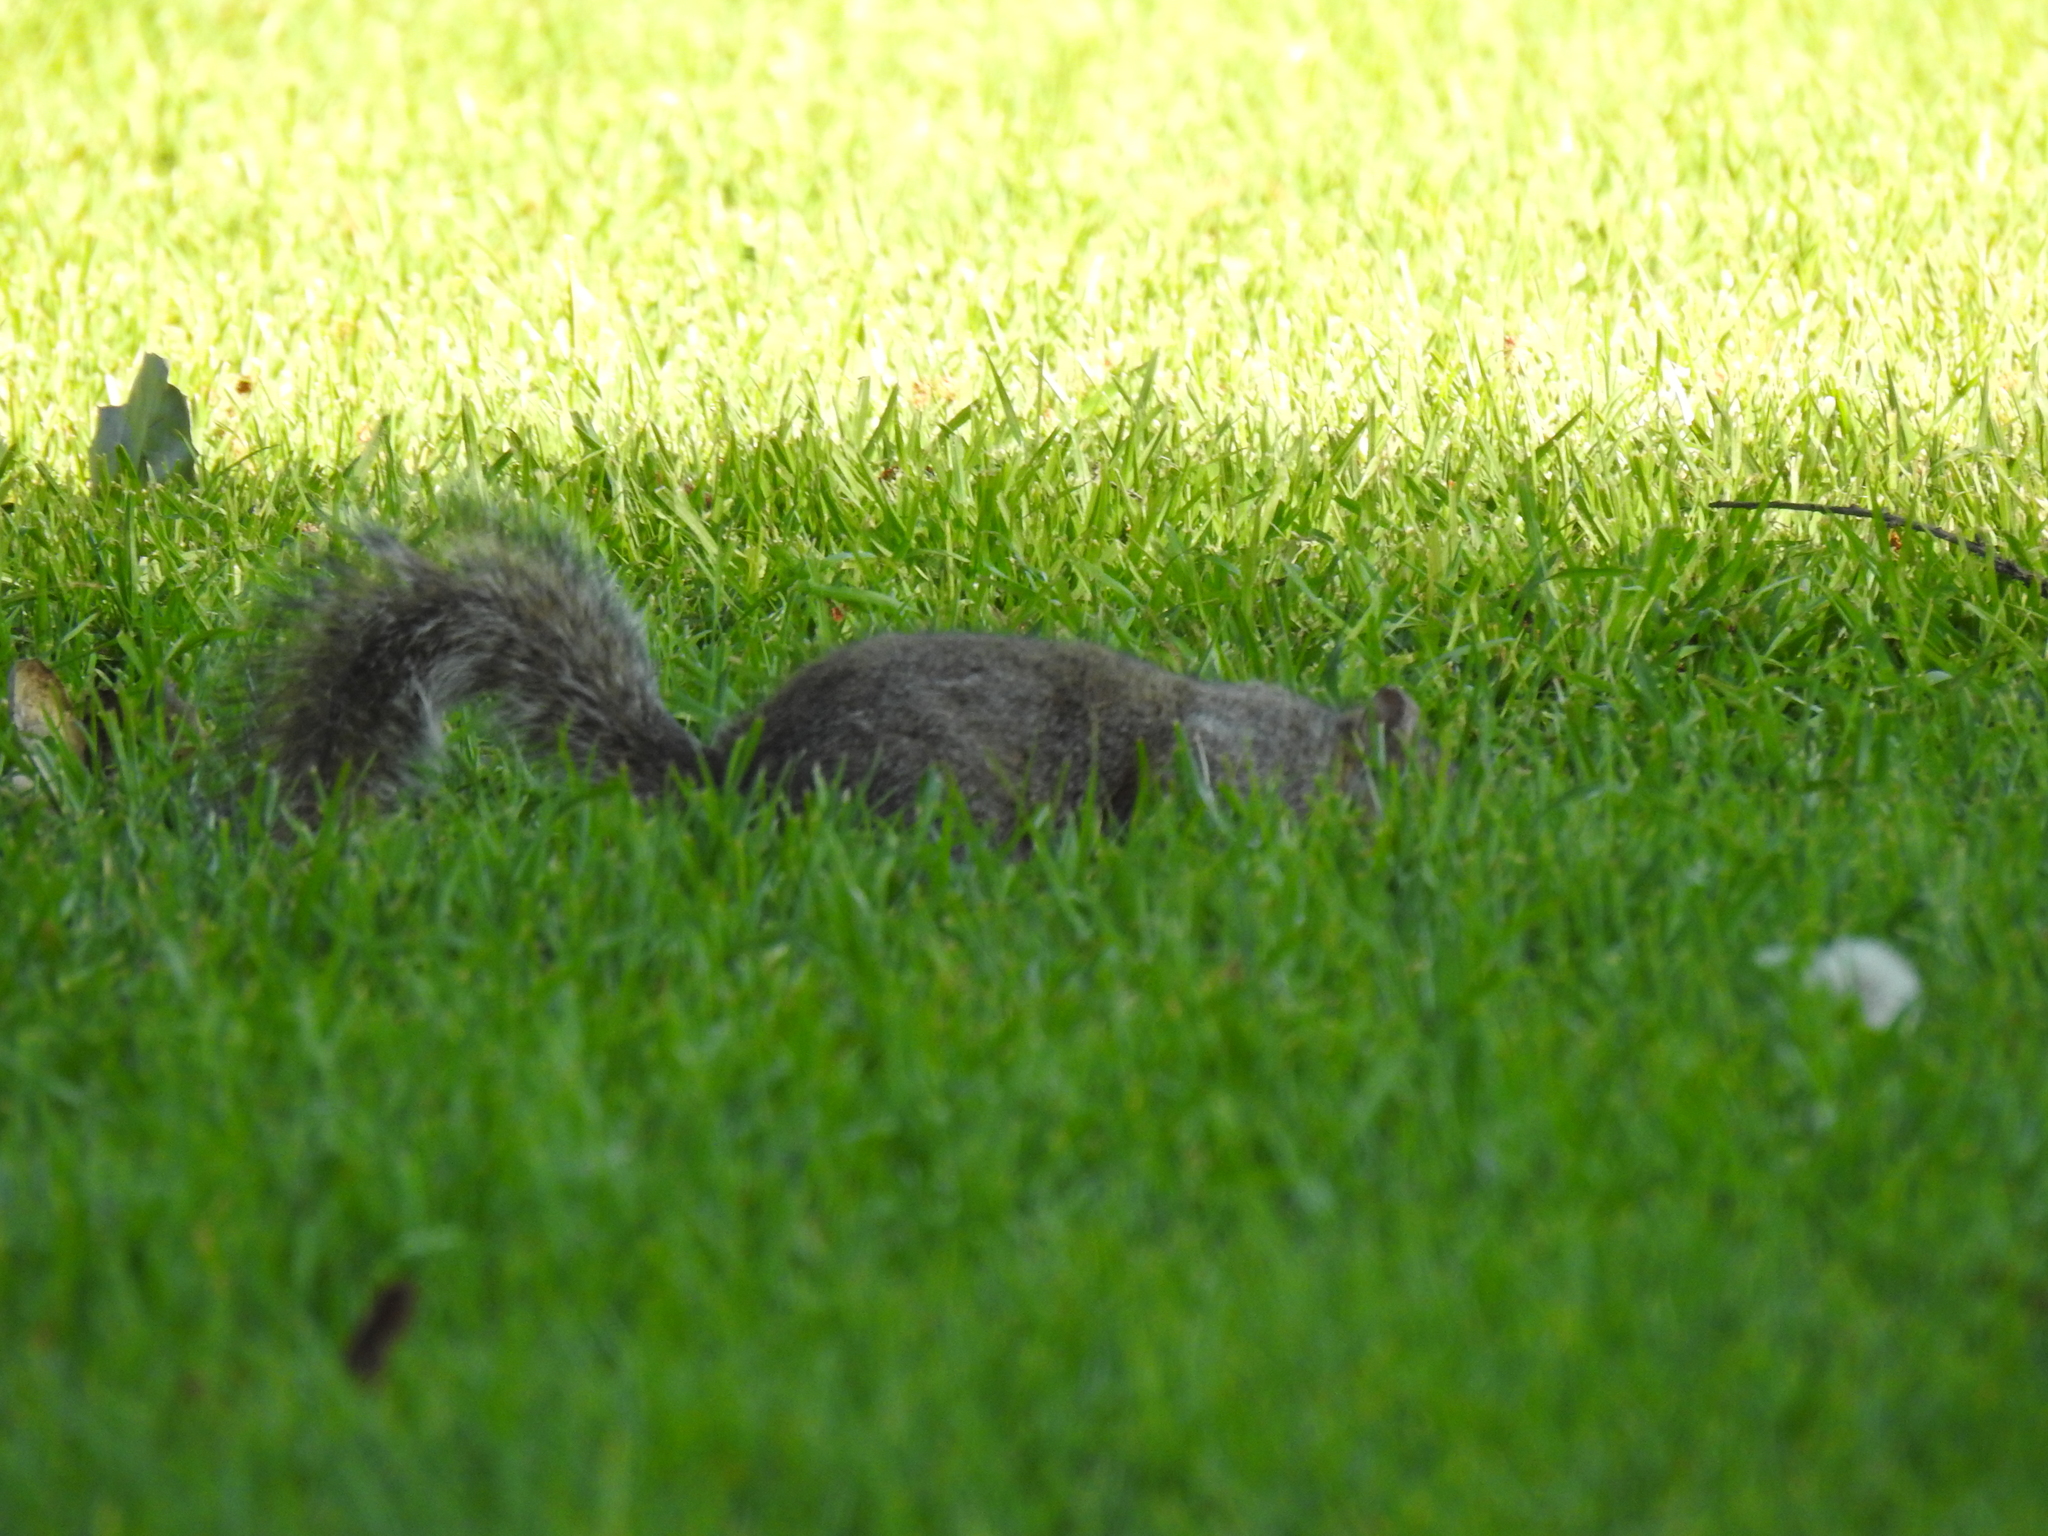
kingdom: Animalia
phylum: Chordata
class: Mammalia
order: Rodentia
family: Sciuridae
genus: Sciurus
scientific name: Sciurus carolinensis
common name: Eastern gray squirrel
